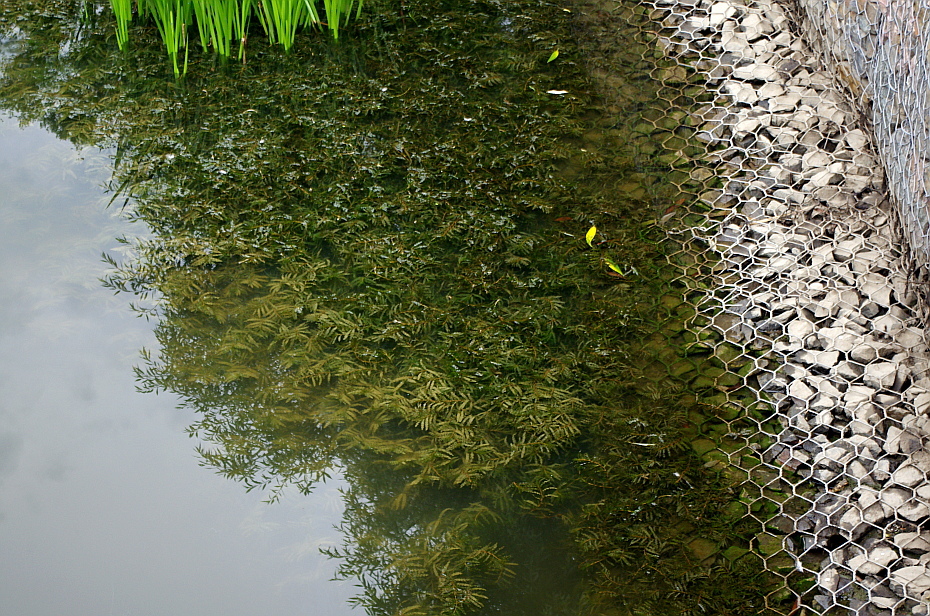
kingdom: Plantae
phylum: Tracheophyta
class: Liliopsida
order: Alismatales
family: Potamogetonaceae
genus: Potamogeton
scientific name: Potamogeton crispus
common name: Curled pondweed
